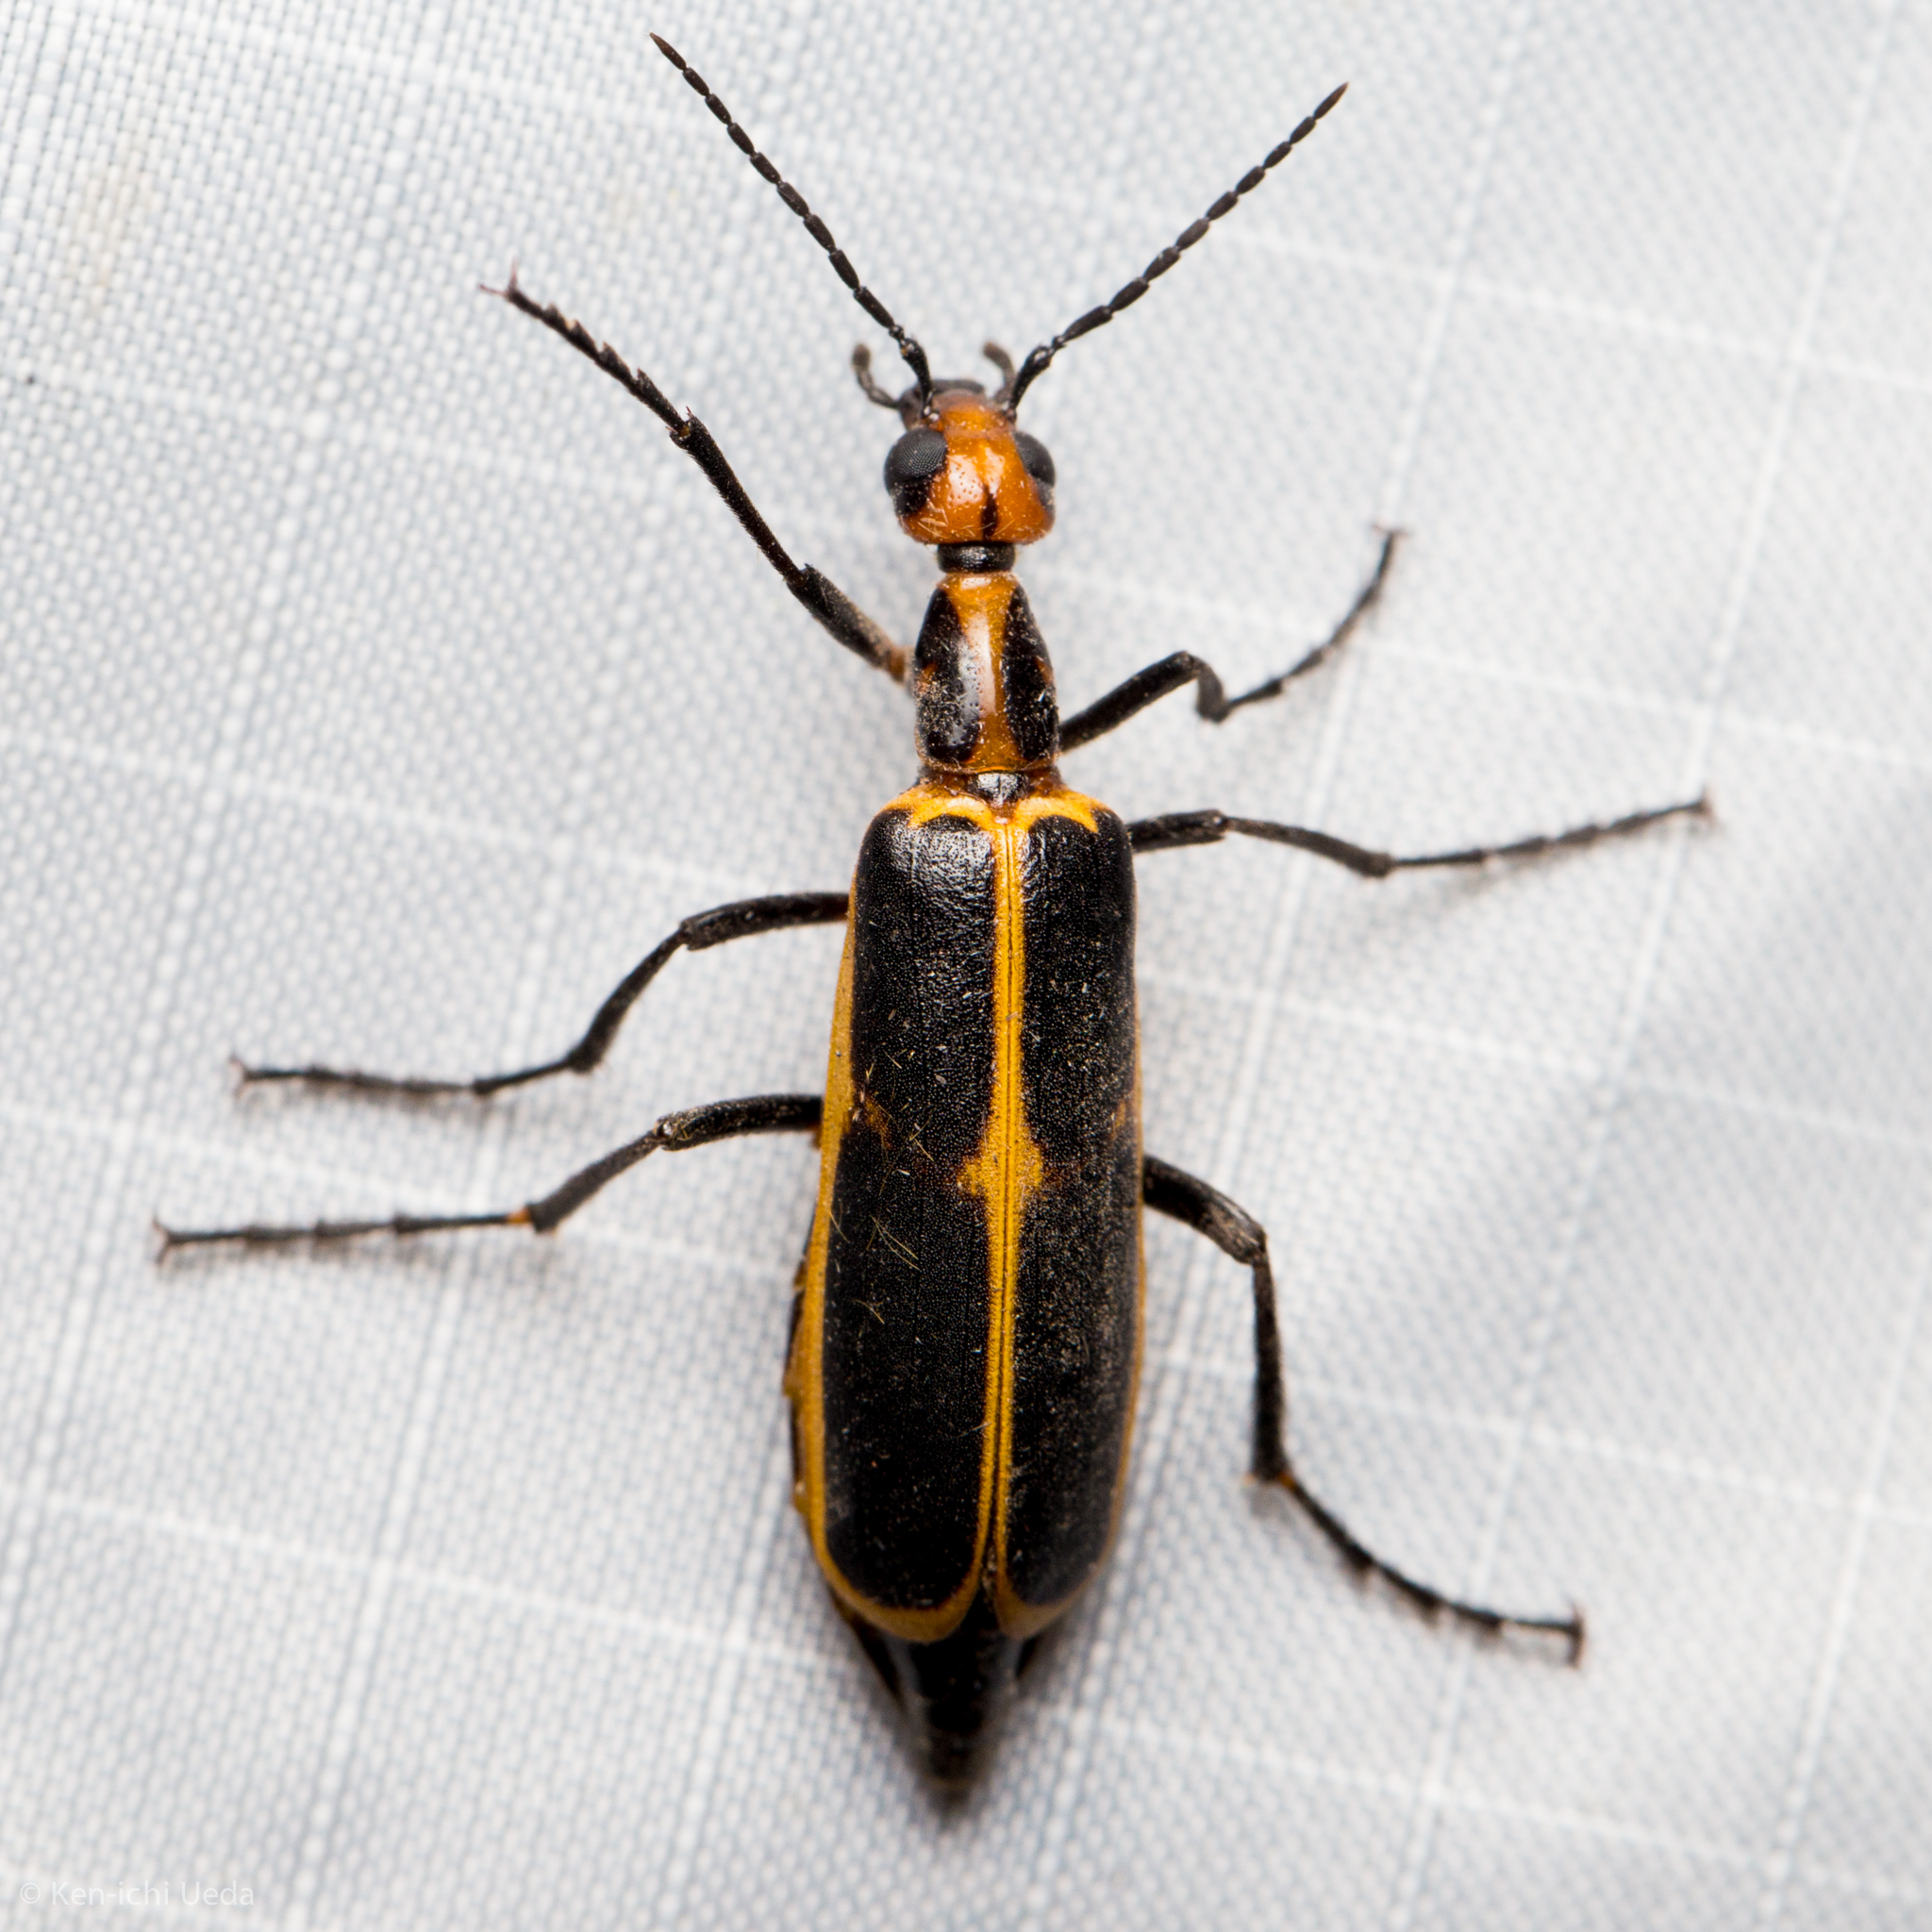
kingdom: Animalia
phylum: Arthropoda
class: Insecta
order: Coleoptera
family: Meloidae
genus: Pyrota
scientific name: Pyrota
